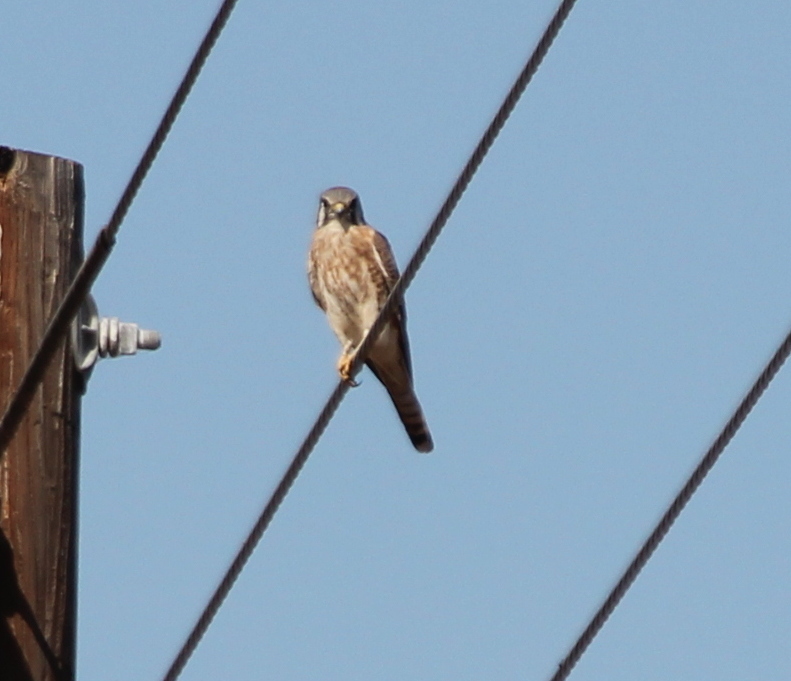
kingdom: Animalia
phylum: Chordata
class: Aves
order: Falconiformes
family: Falconidae
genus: Falco
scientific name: Falco sparverius
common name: American kestrel
